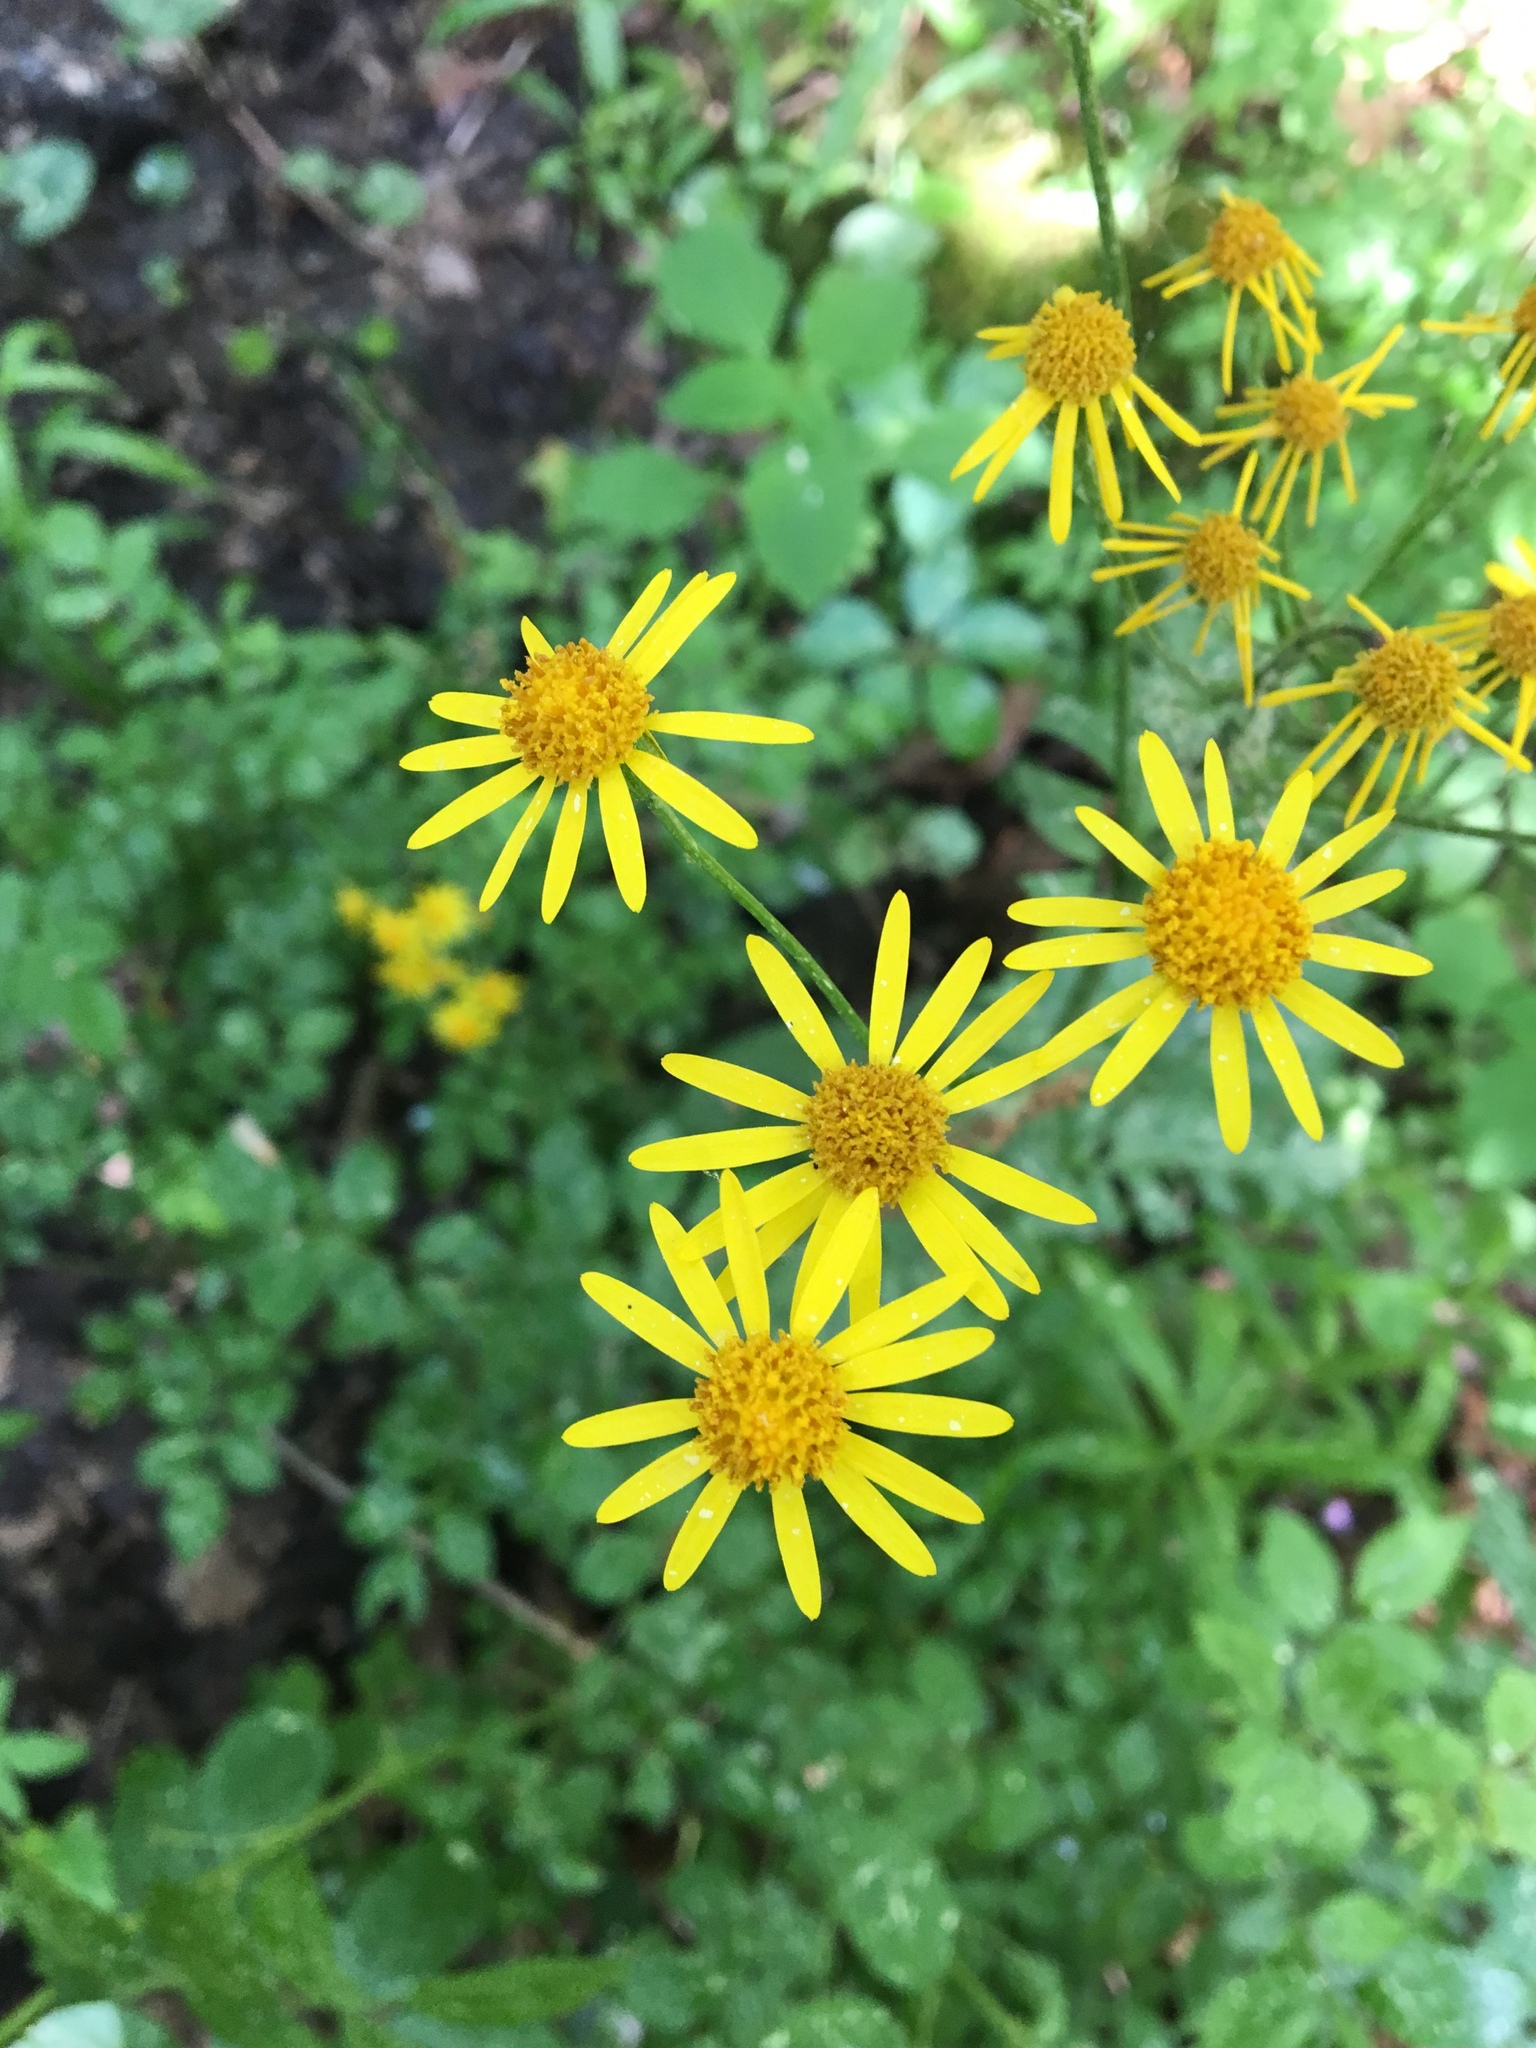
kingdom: Plantae
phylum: Tracheophyta
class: Magnoliopsida
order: Asterales
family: Asteraceae
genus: Packera
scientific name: Packera aurea
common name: Golden groundsel
